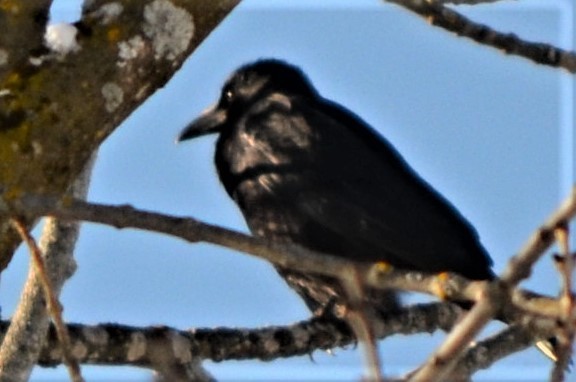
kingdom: Animalia
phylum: Chordata
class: Aves
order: Passeriformes
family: Corvidae
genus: Corvus
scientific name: Corvus corone
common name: Carrion crow
